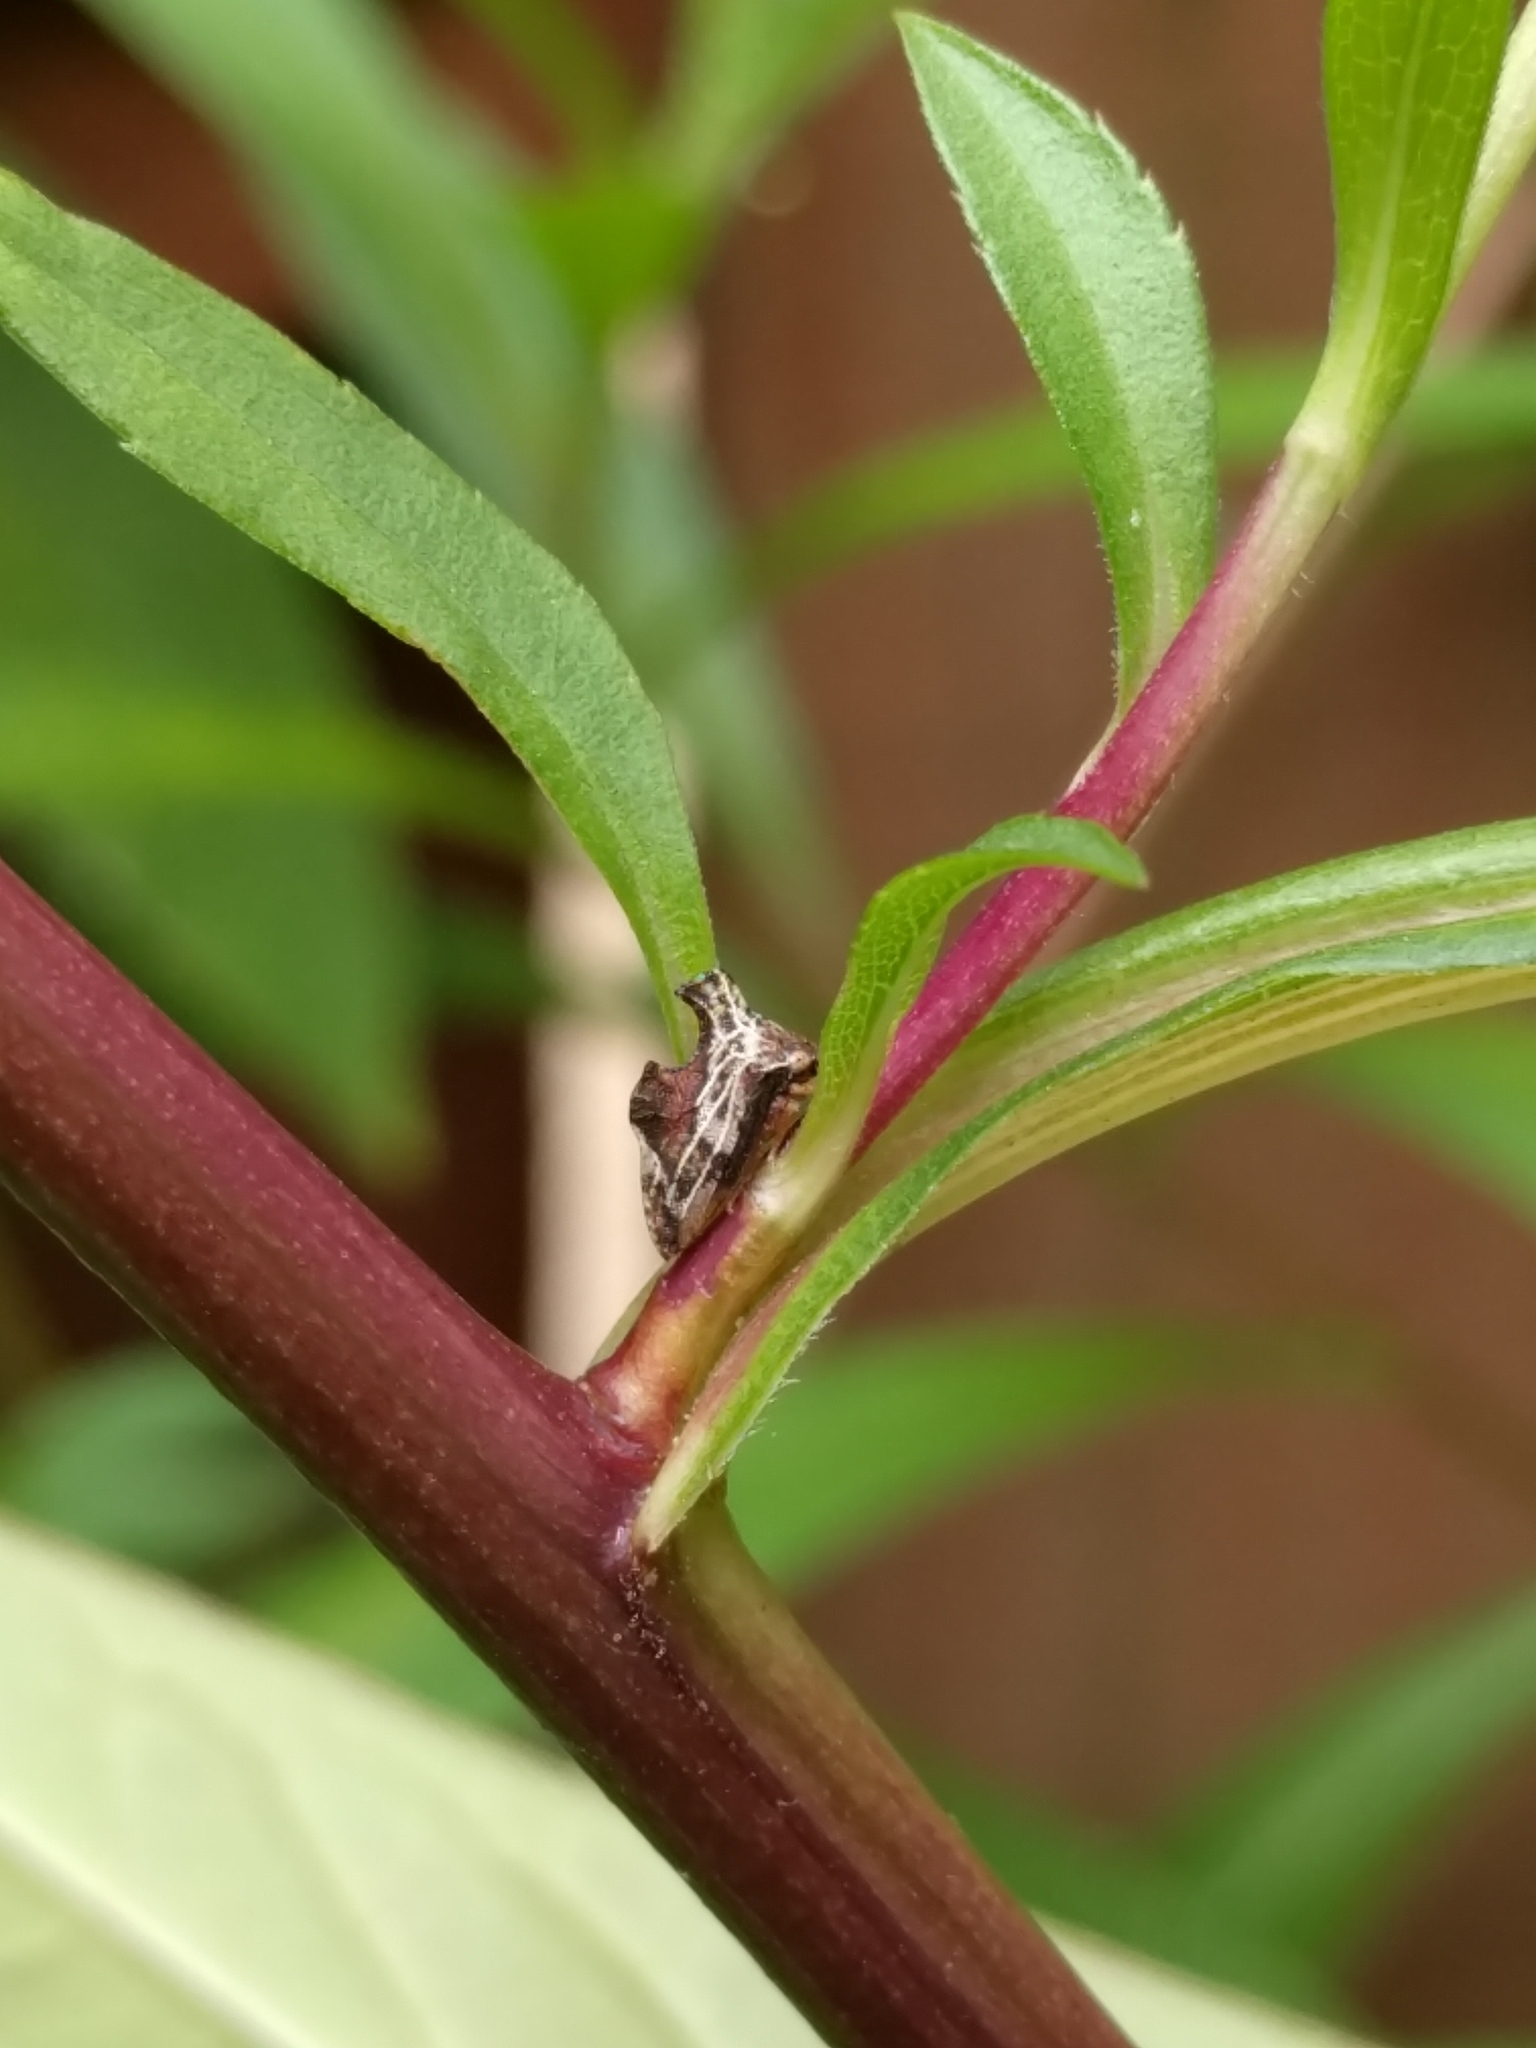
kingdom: Animalia
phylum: Arthropoda
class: Insecta
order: Hemiptera
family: Membracidae
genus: Entylia
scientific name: Entylia carinata
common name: Keeled treehopper
